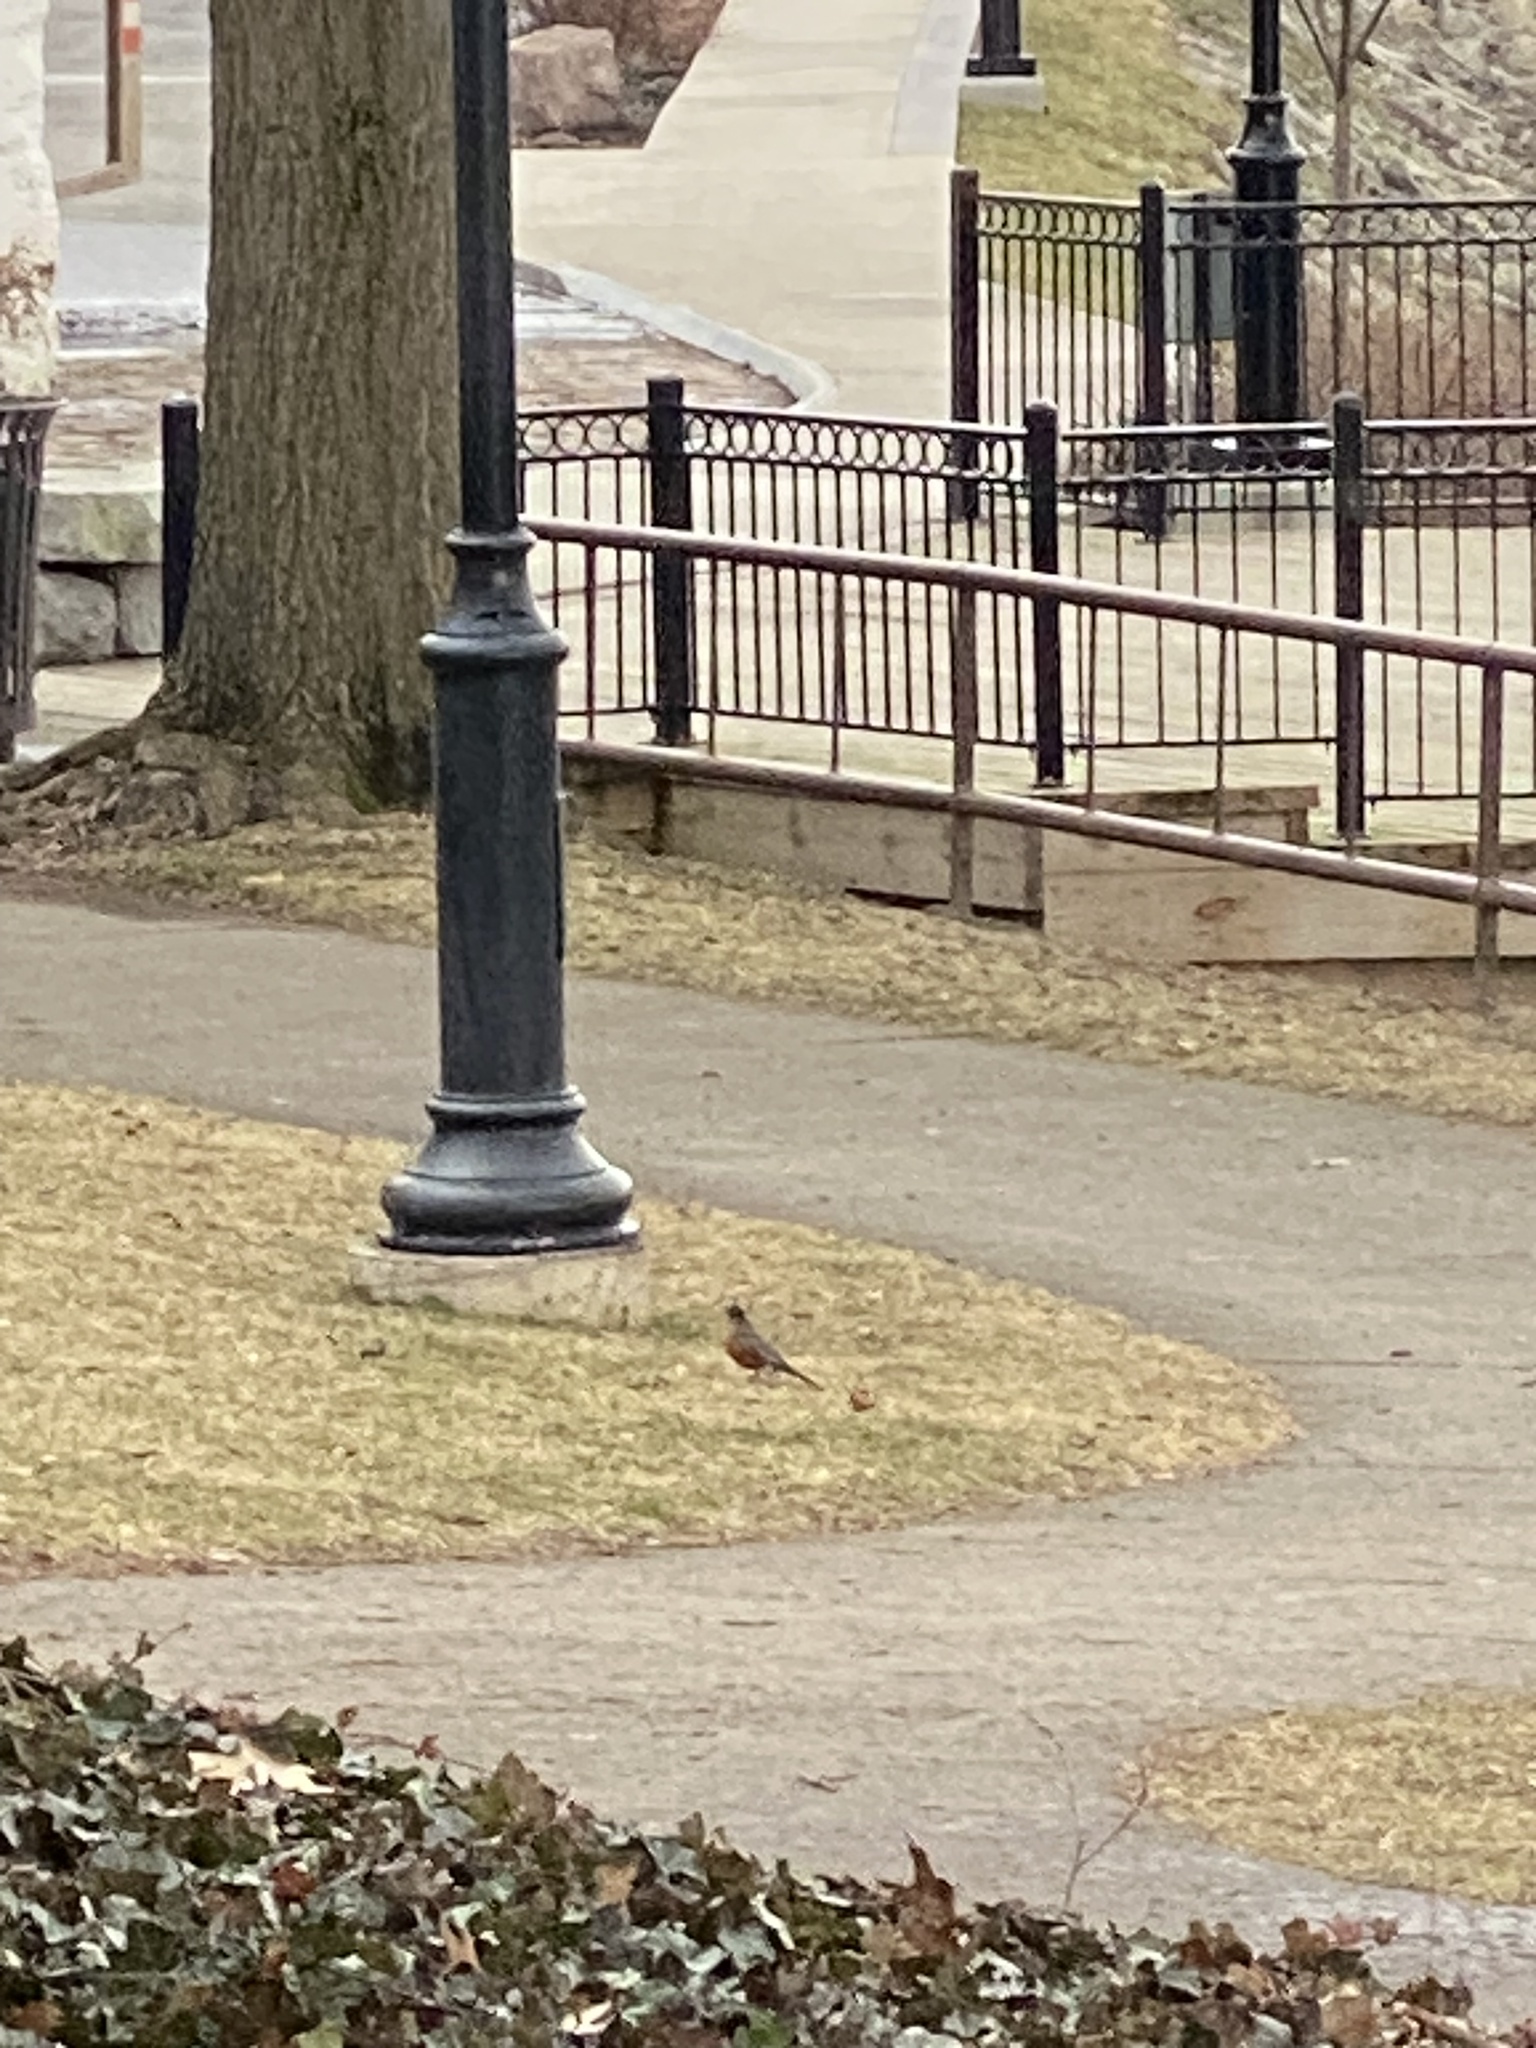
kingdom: Animalia
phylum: Chordata
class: Aves
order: Passeriformes
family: Turdidae
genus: Turdus
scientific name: Turdus migratorius
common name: American robin
